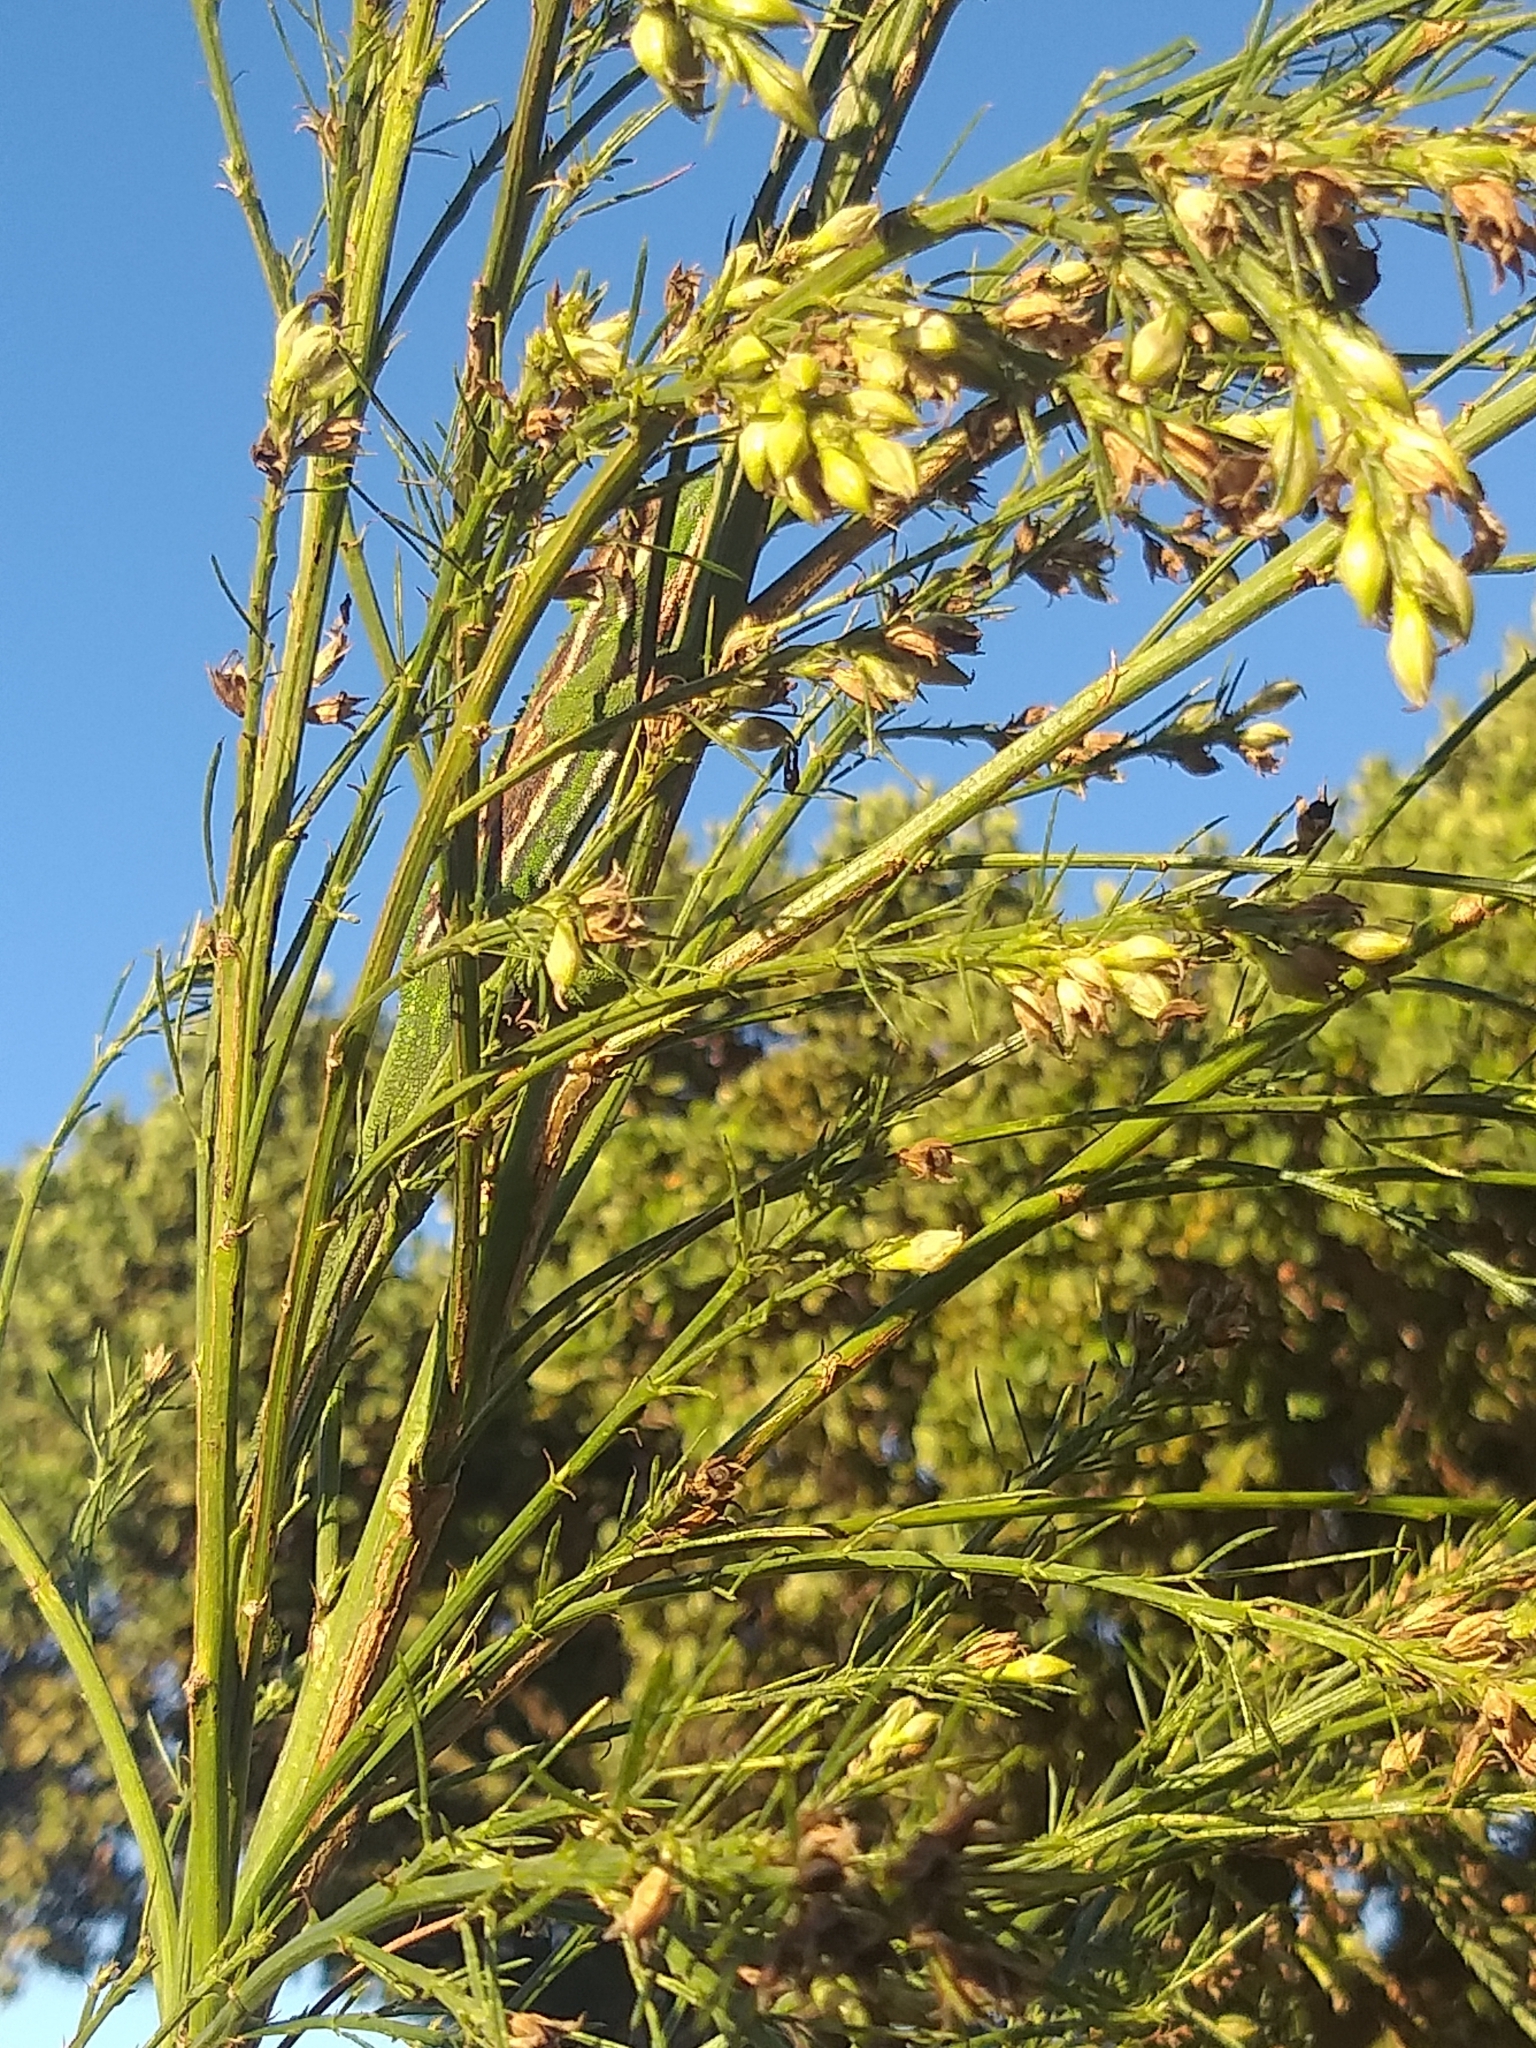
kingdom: Animalia
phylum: Chordata
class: Squamata
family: Chamaeleonidae
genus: Bradypodion
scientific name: Bradypodion pumilum
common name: Cape dwarf chameleon
